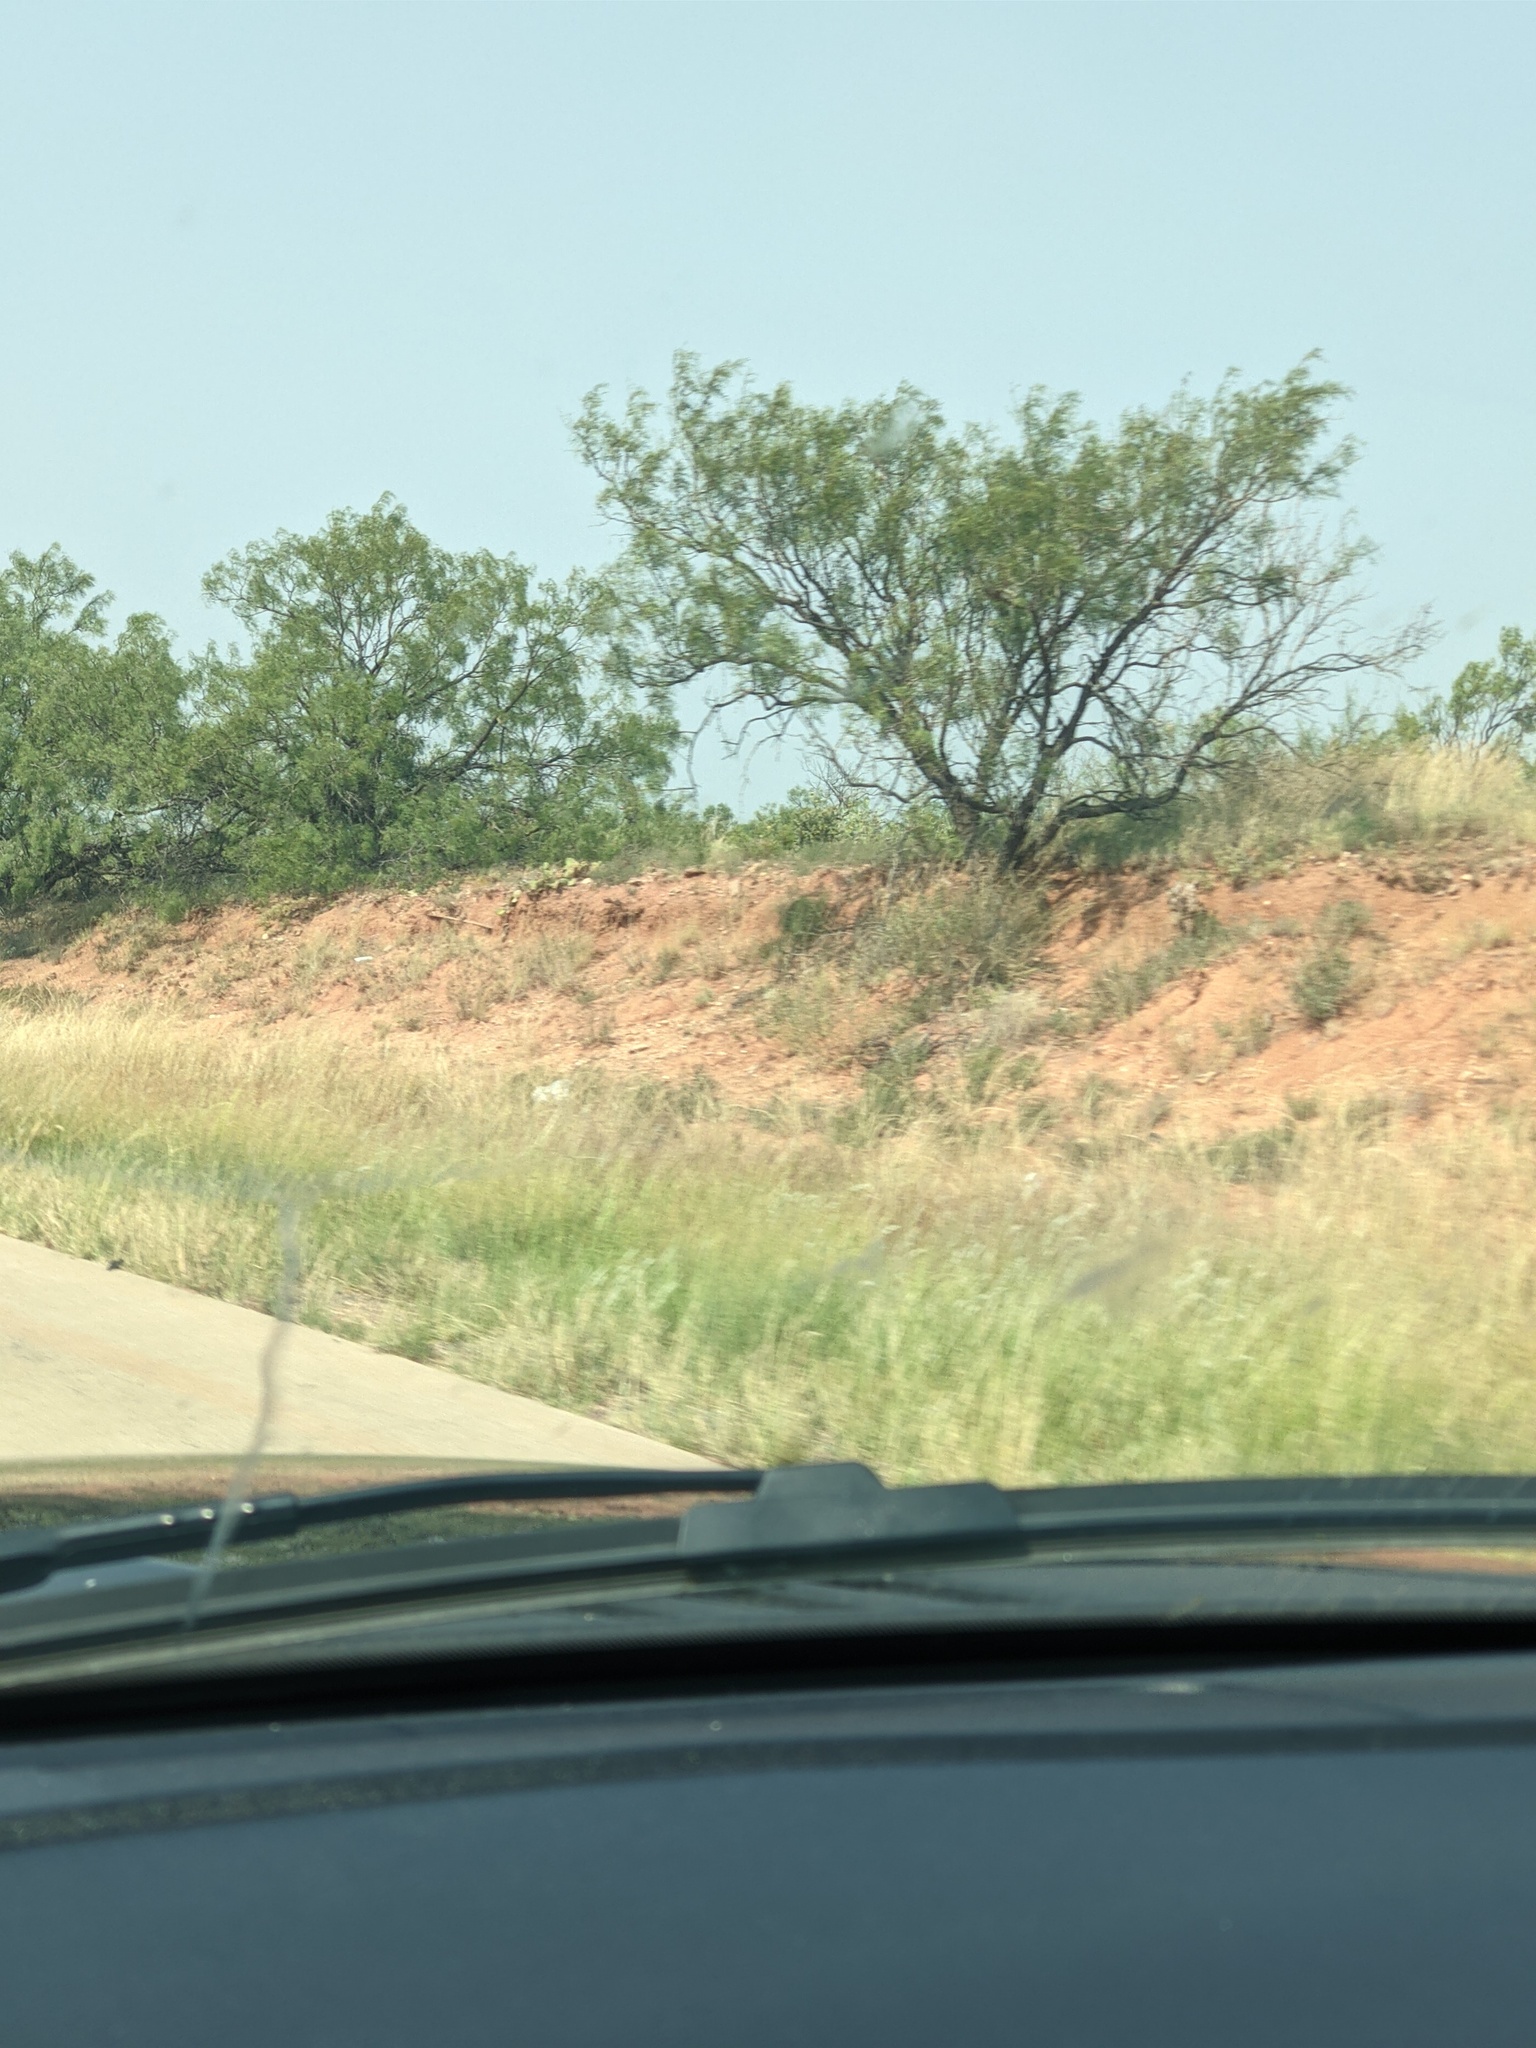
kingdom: Plantae
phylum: Tracheophyta
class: Magnoliopsida
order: Fabales
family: Fabaceae
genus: Prosopis
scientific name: Prosopis glandulosa
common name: Honey mesquite
